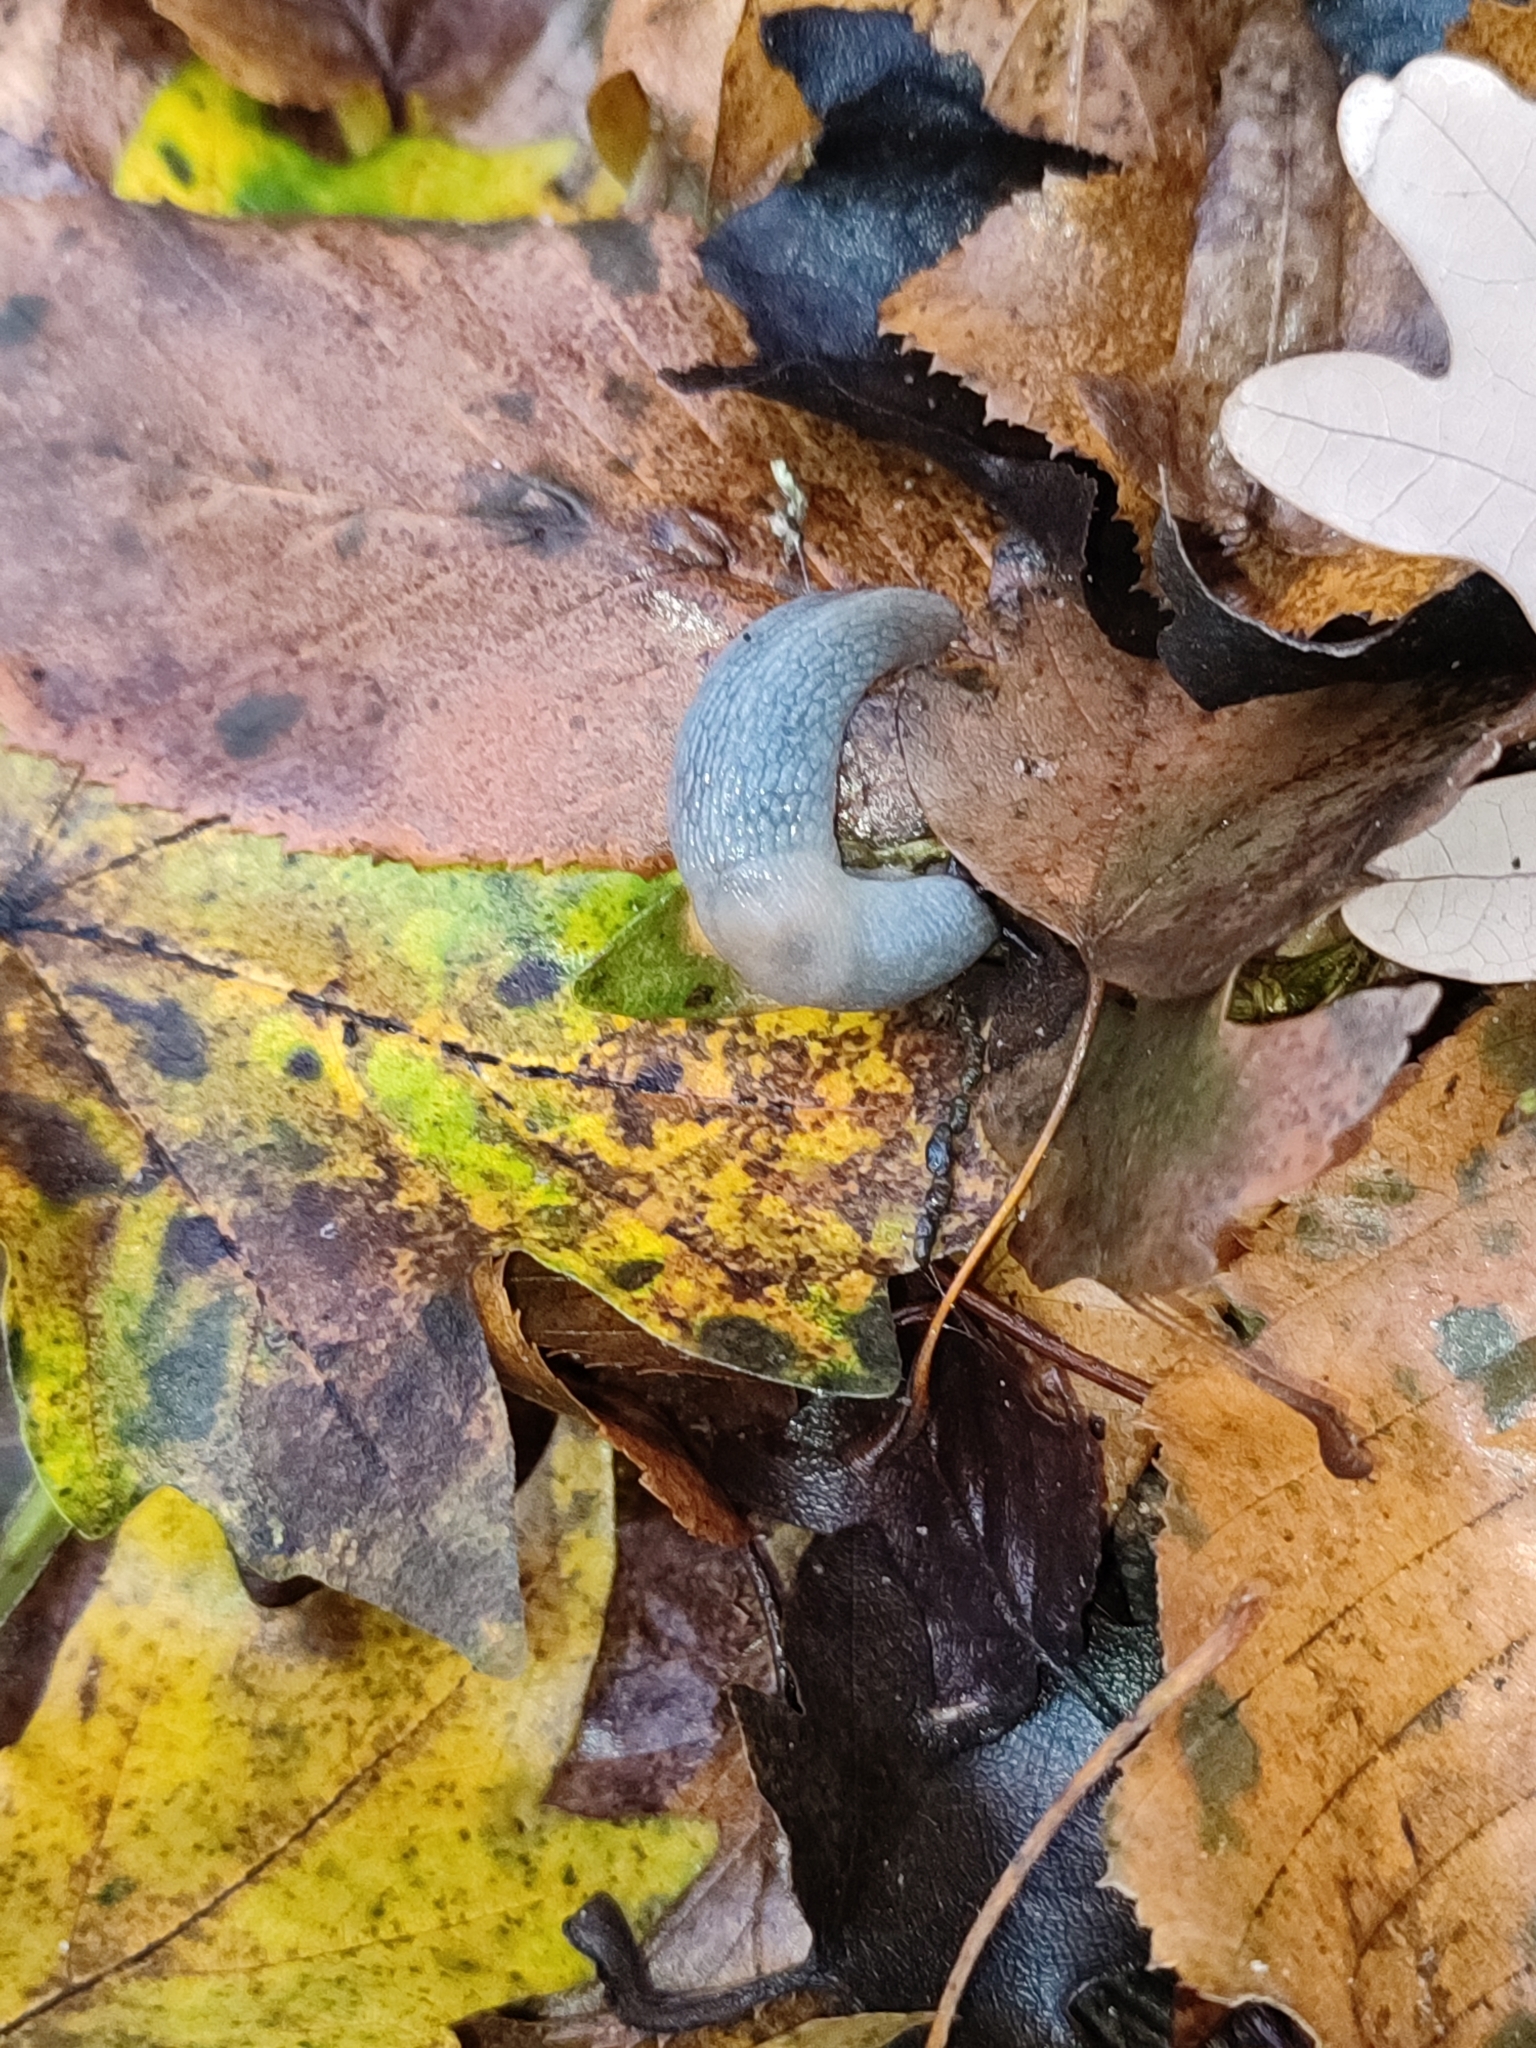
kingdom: Animalia
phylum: Mollusca
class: Gastropoda
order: Stylommatophora
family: Agriolimacidae
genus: Krynickillus
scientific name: Krynickillus melanocephalus
